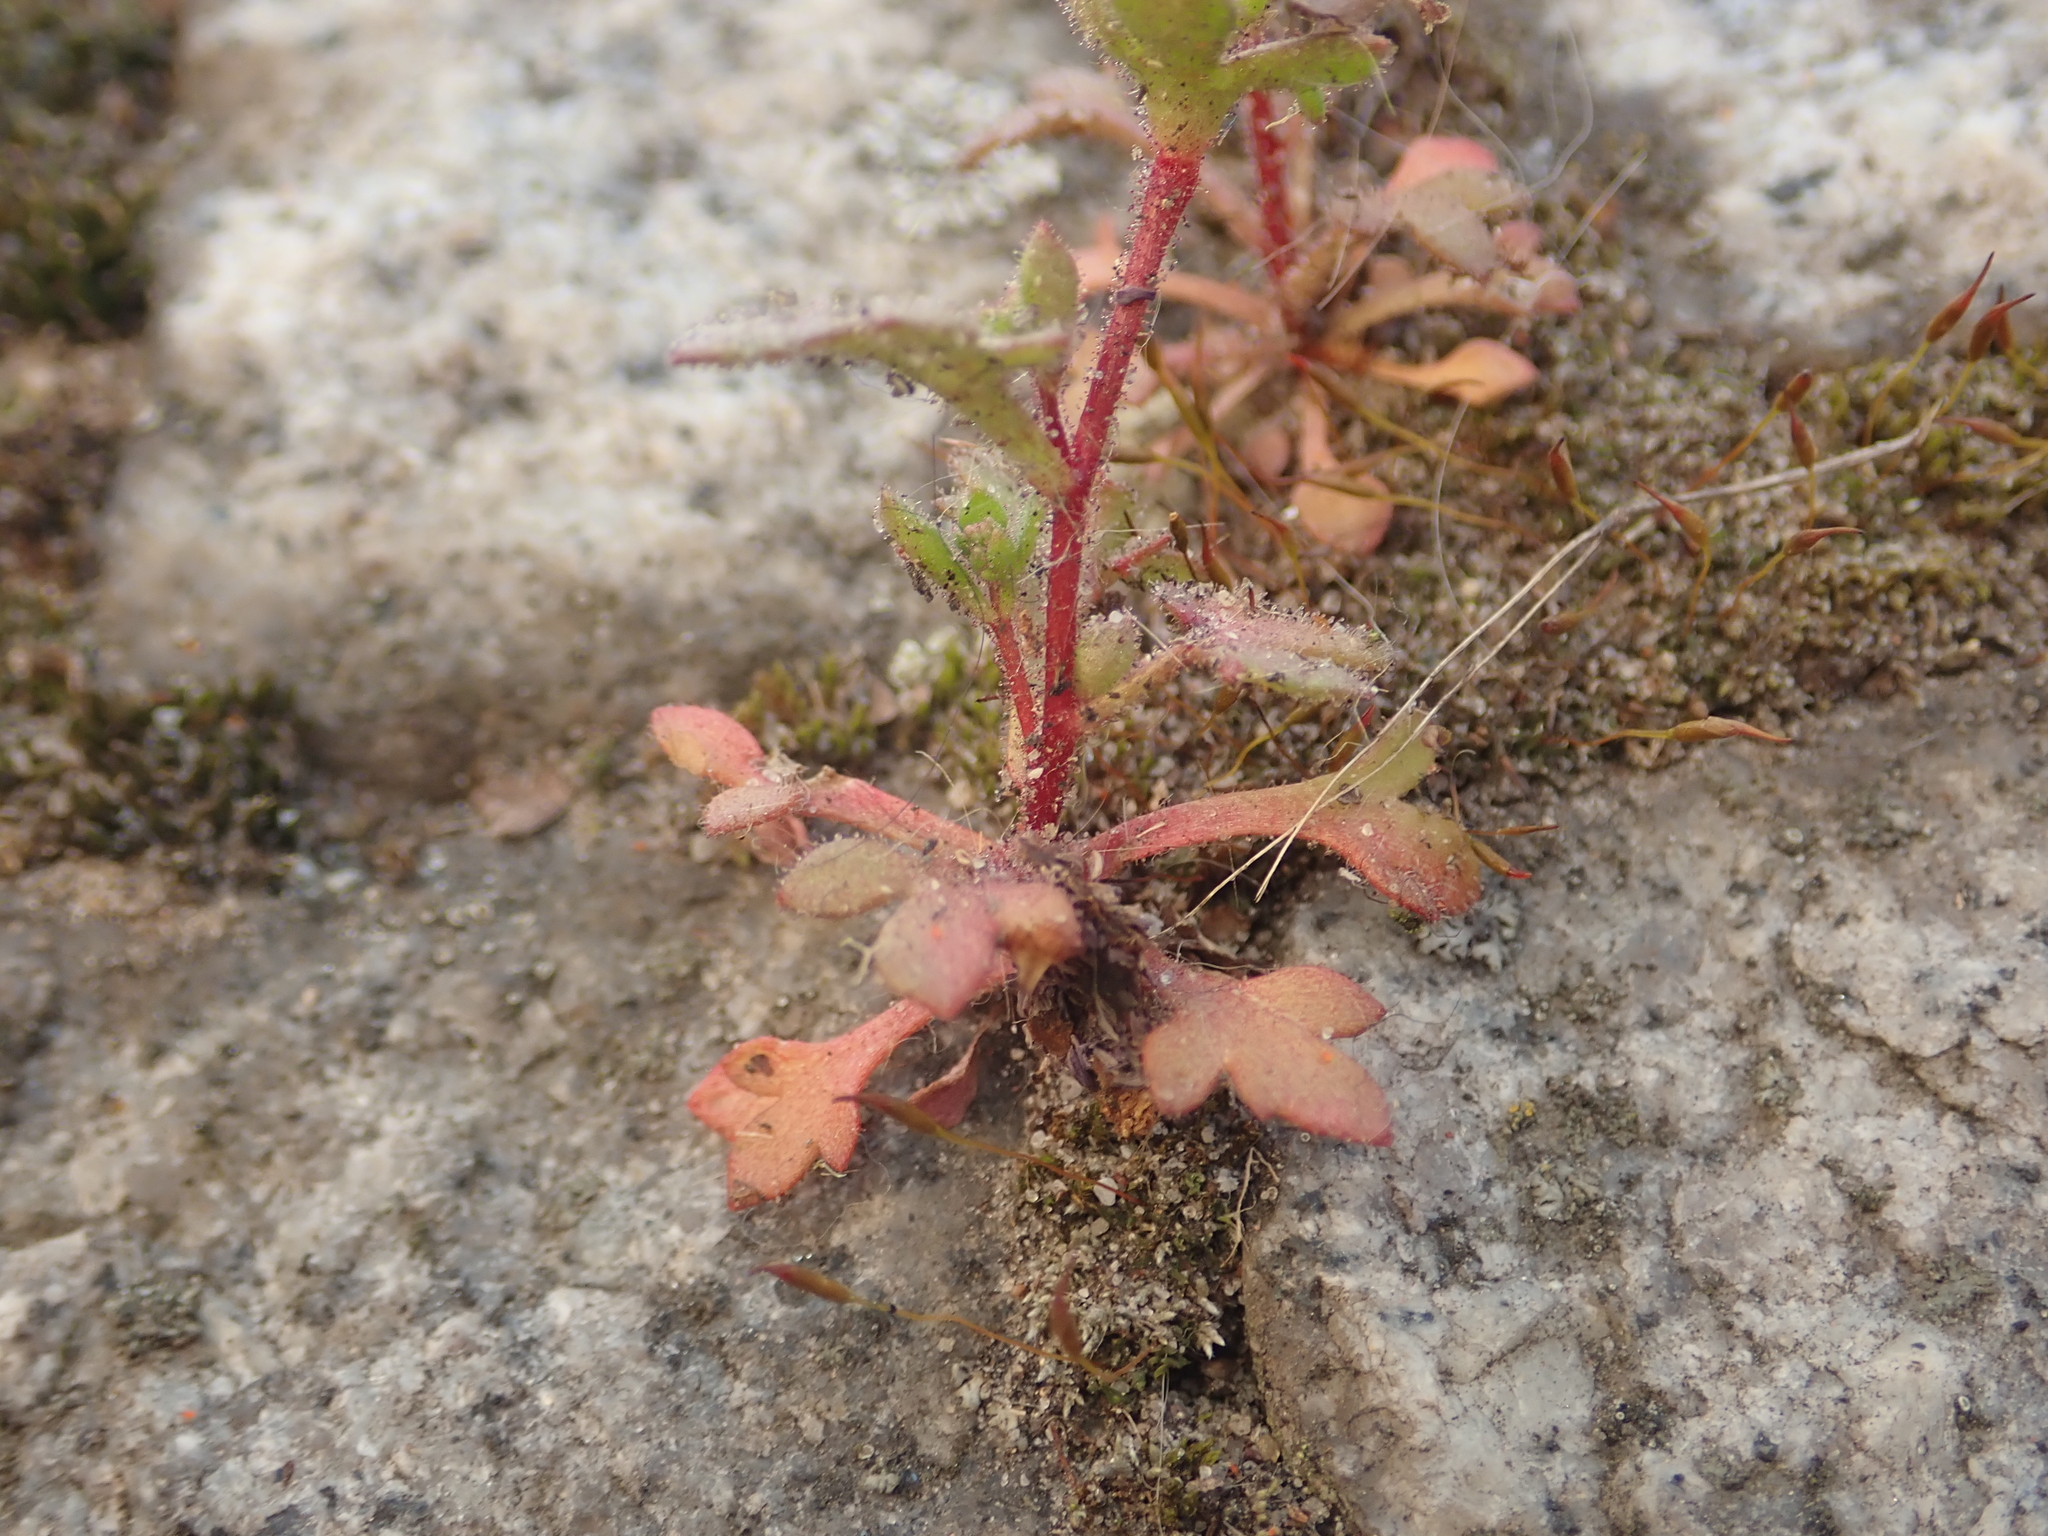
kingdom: Plantae
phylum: Tracheophyta
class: Magnoliopsida
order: Saxifragales
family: Saxifragaceae
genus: Saxifraga
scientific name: Saxifraga tridactylites
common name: Rue-leaved saxifrage
